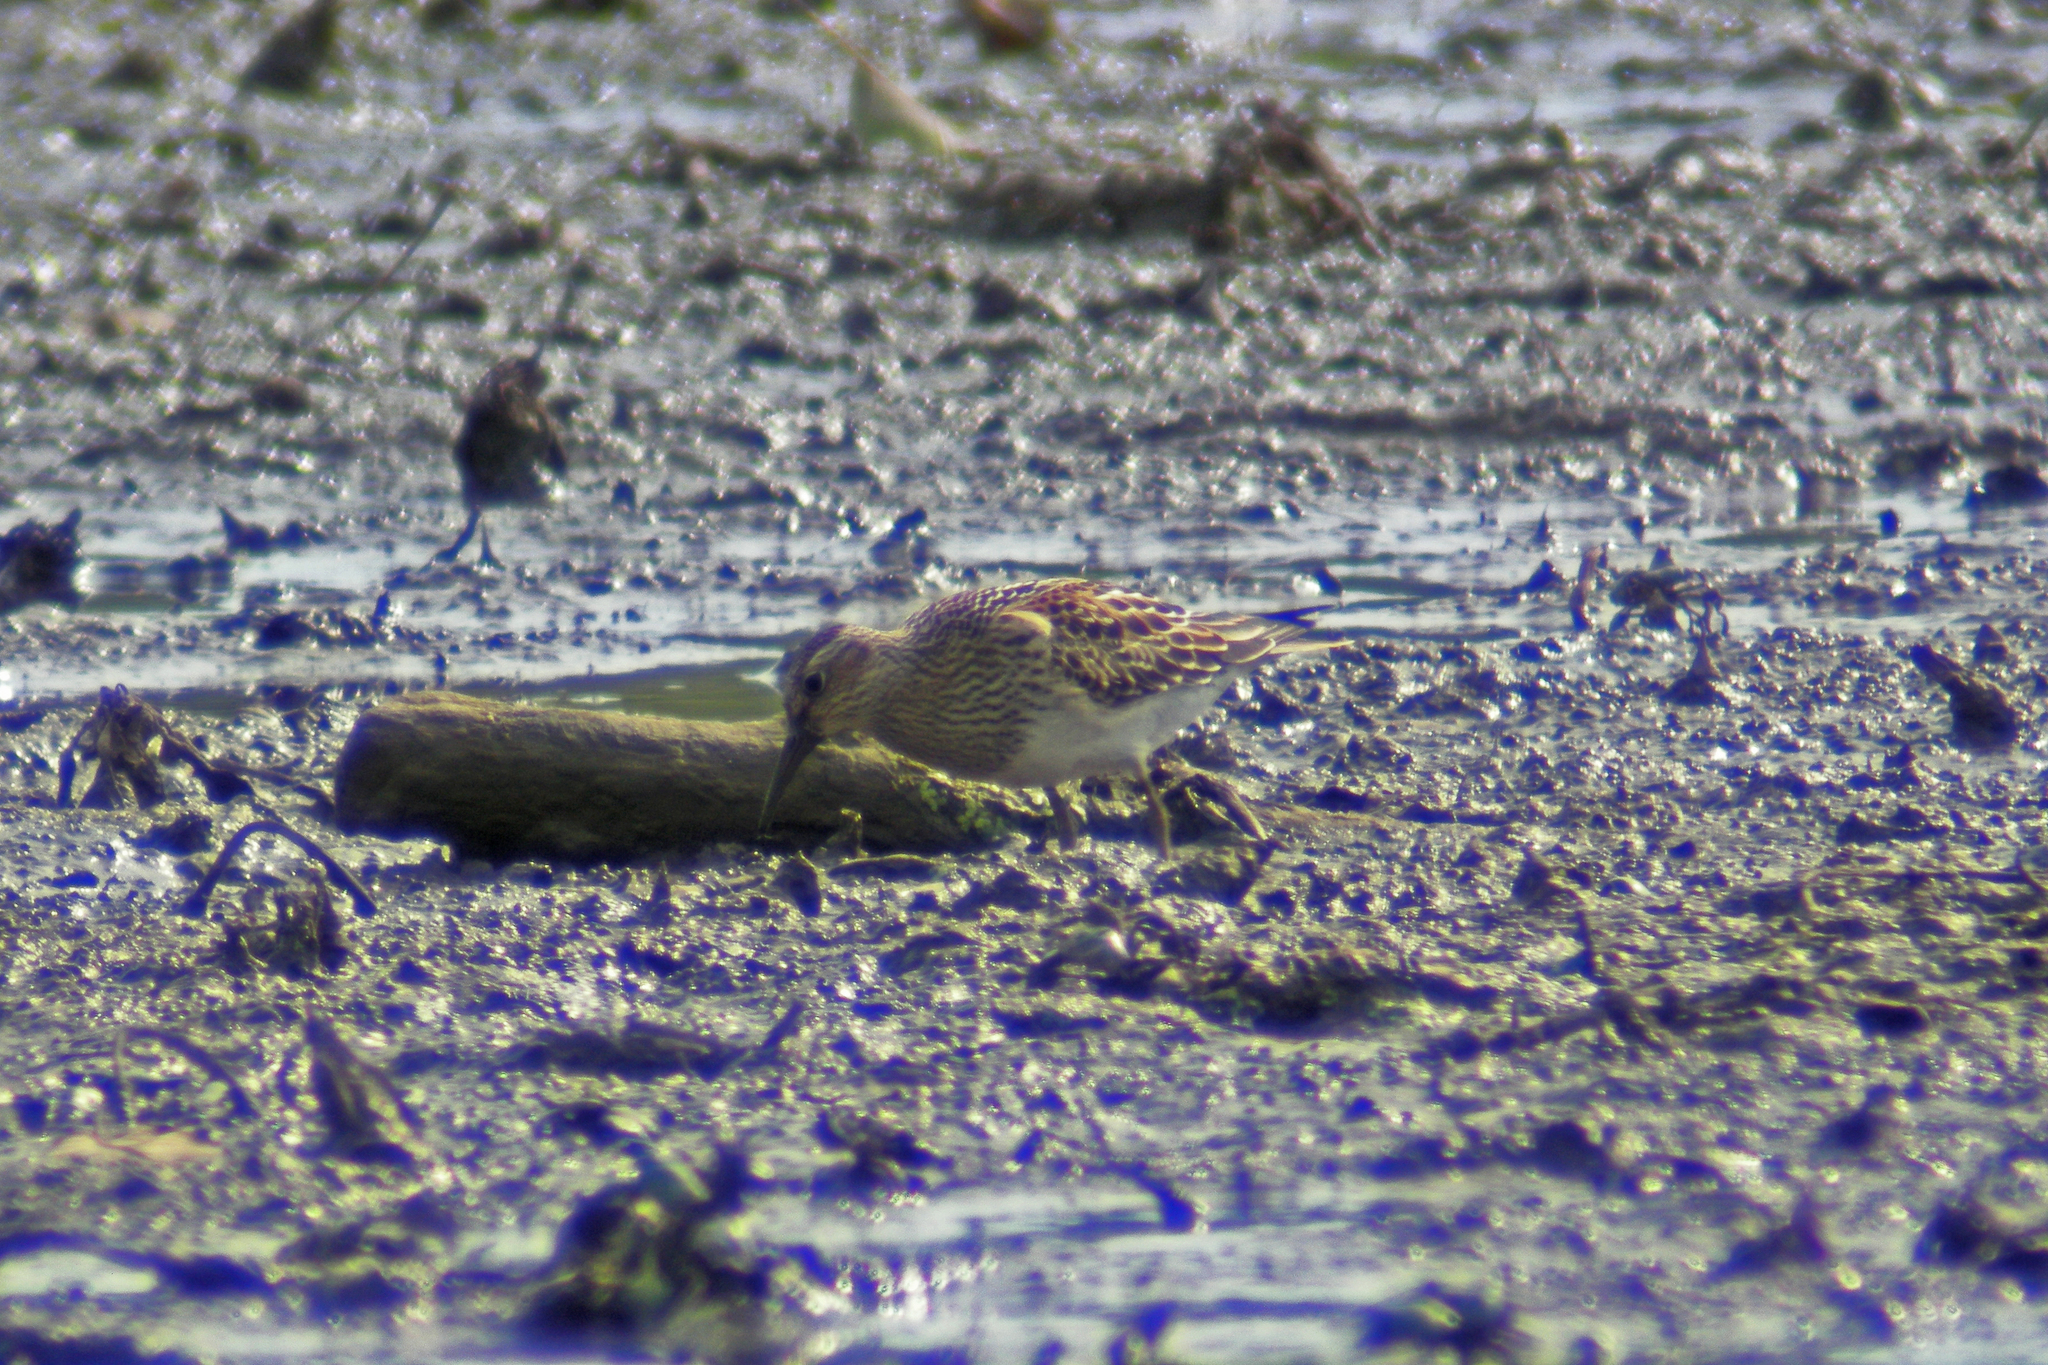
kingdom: Animalia
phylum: Chordata
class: Aves
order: Charadriiformes
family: Scolopacidae
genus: Calidris
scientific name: Calidris melanotos
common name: Pectoral sandpiper
